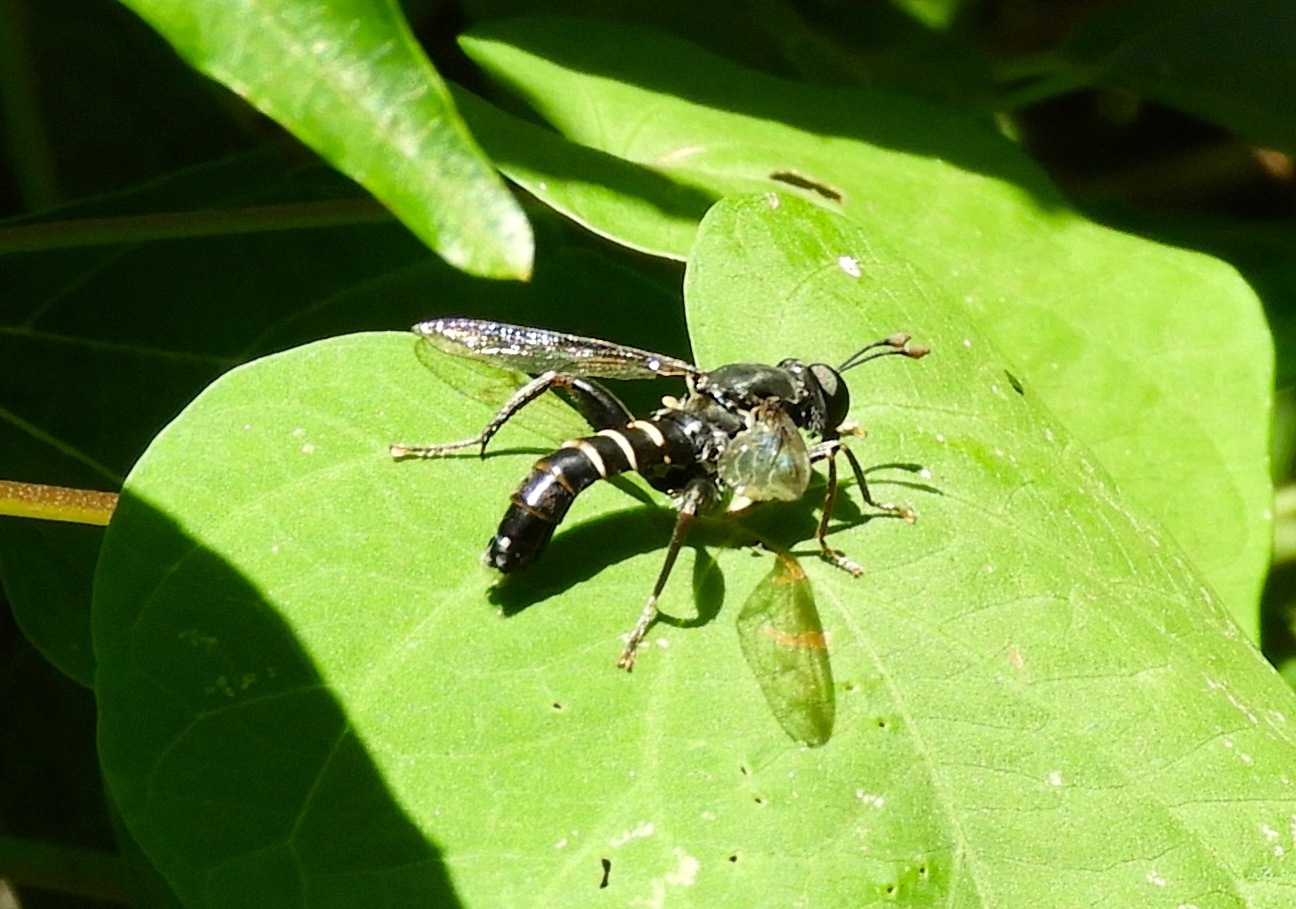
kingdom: Animalia
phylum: Arthropoda
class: Insecta
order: Diptera
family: Mydidae
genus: Mydas
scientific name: Mydas
